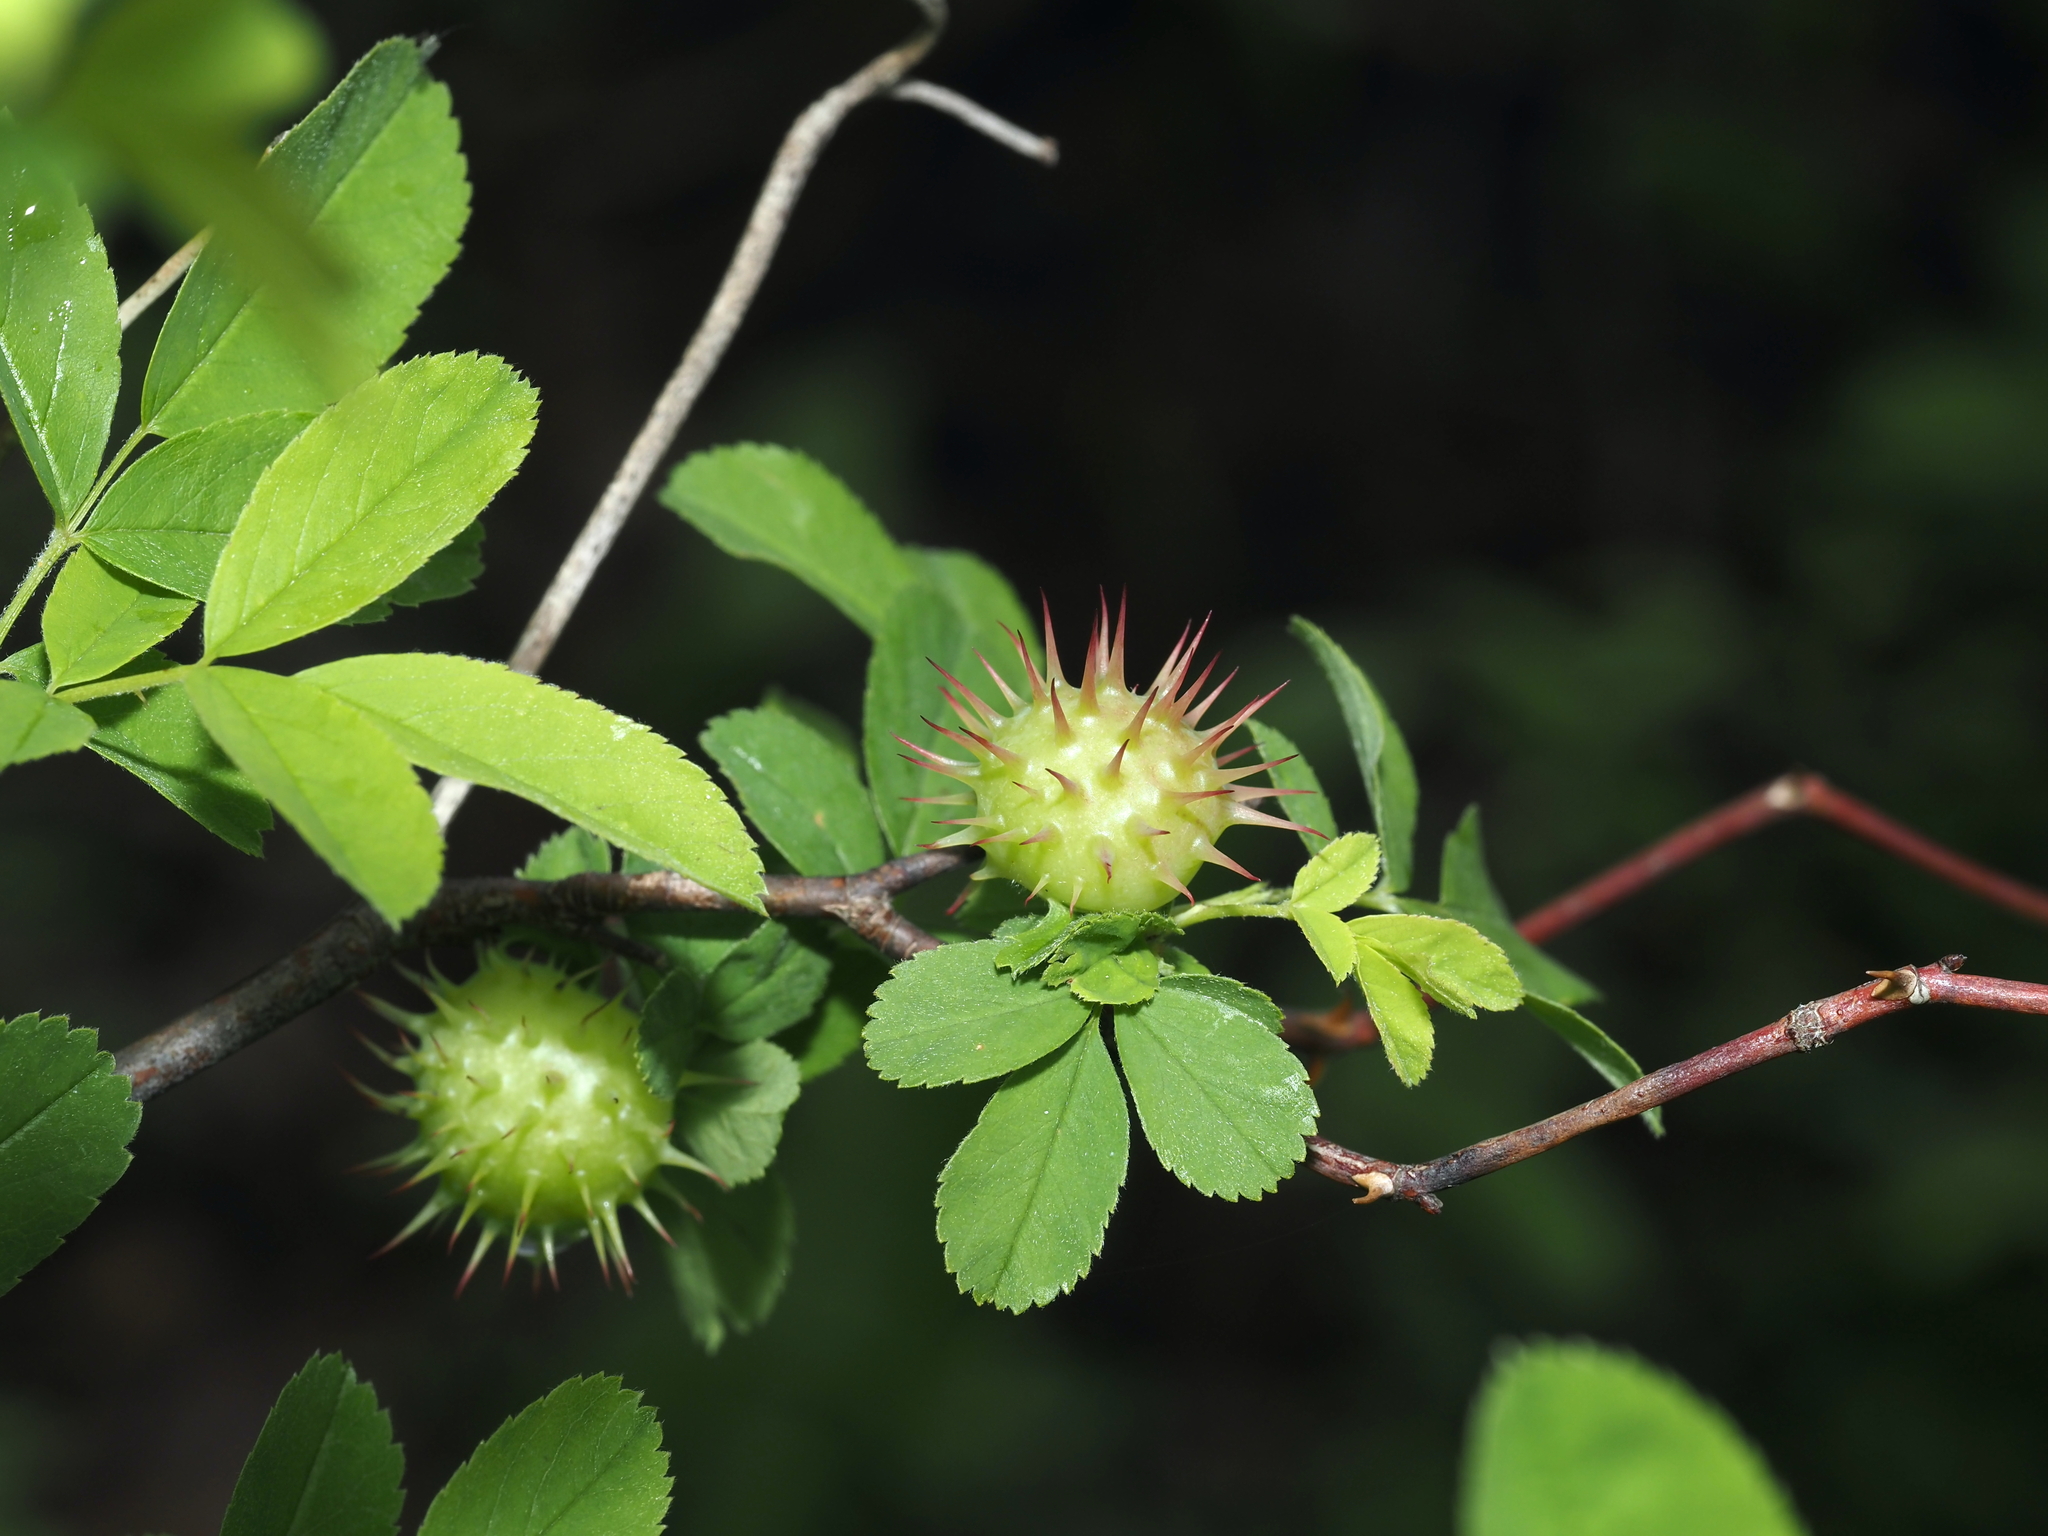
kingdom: Animalia
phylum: Arthropoda
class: Insecta
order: Hymenoptera
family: Cynipidae
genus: Diplolepis
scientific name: Diplolepis polita
